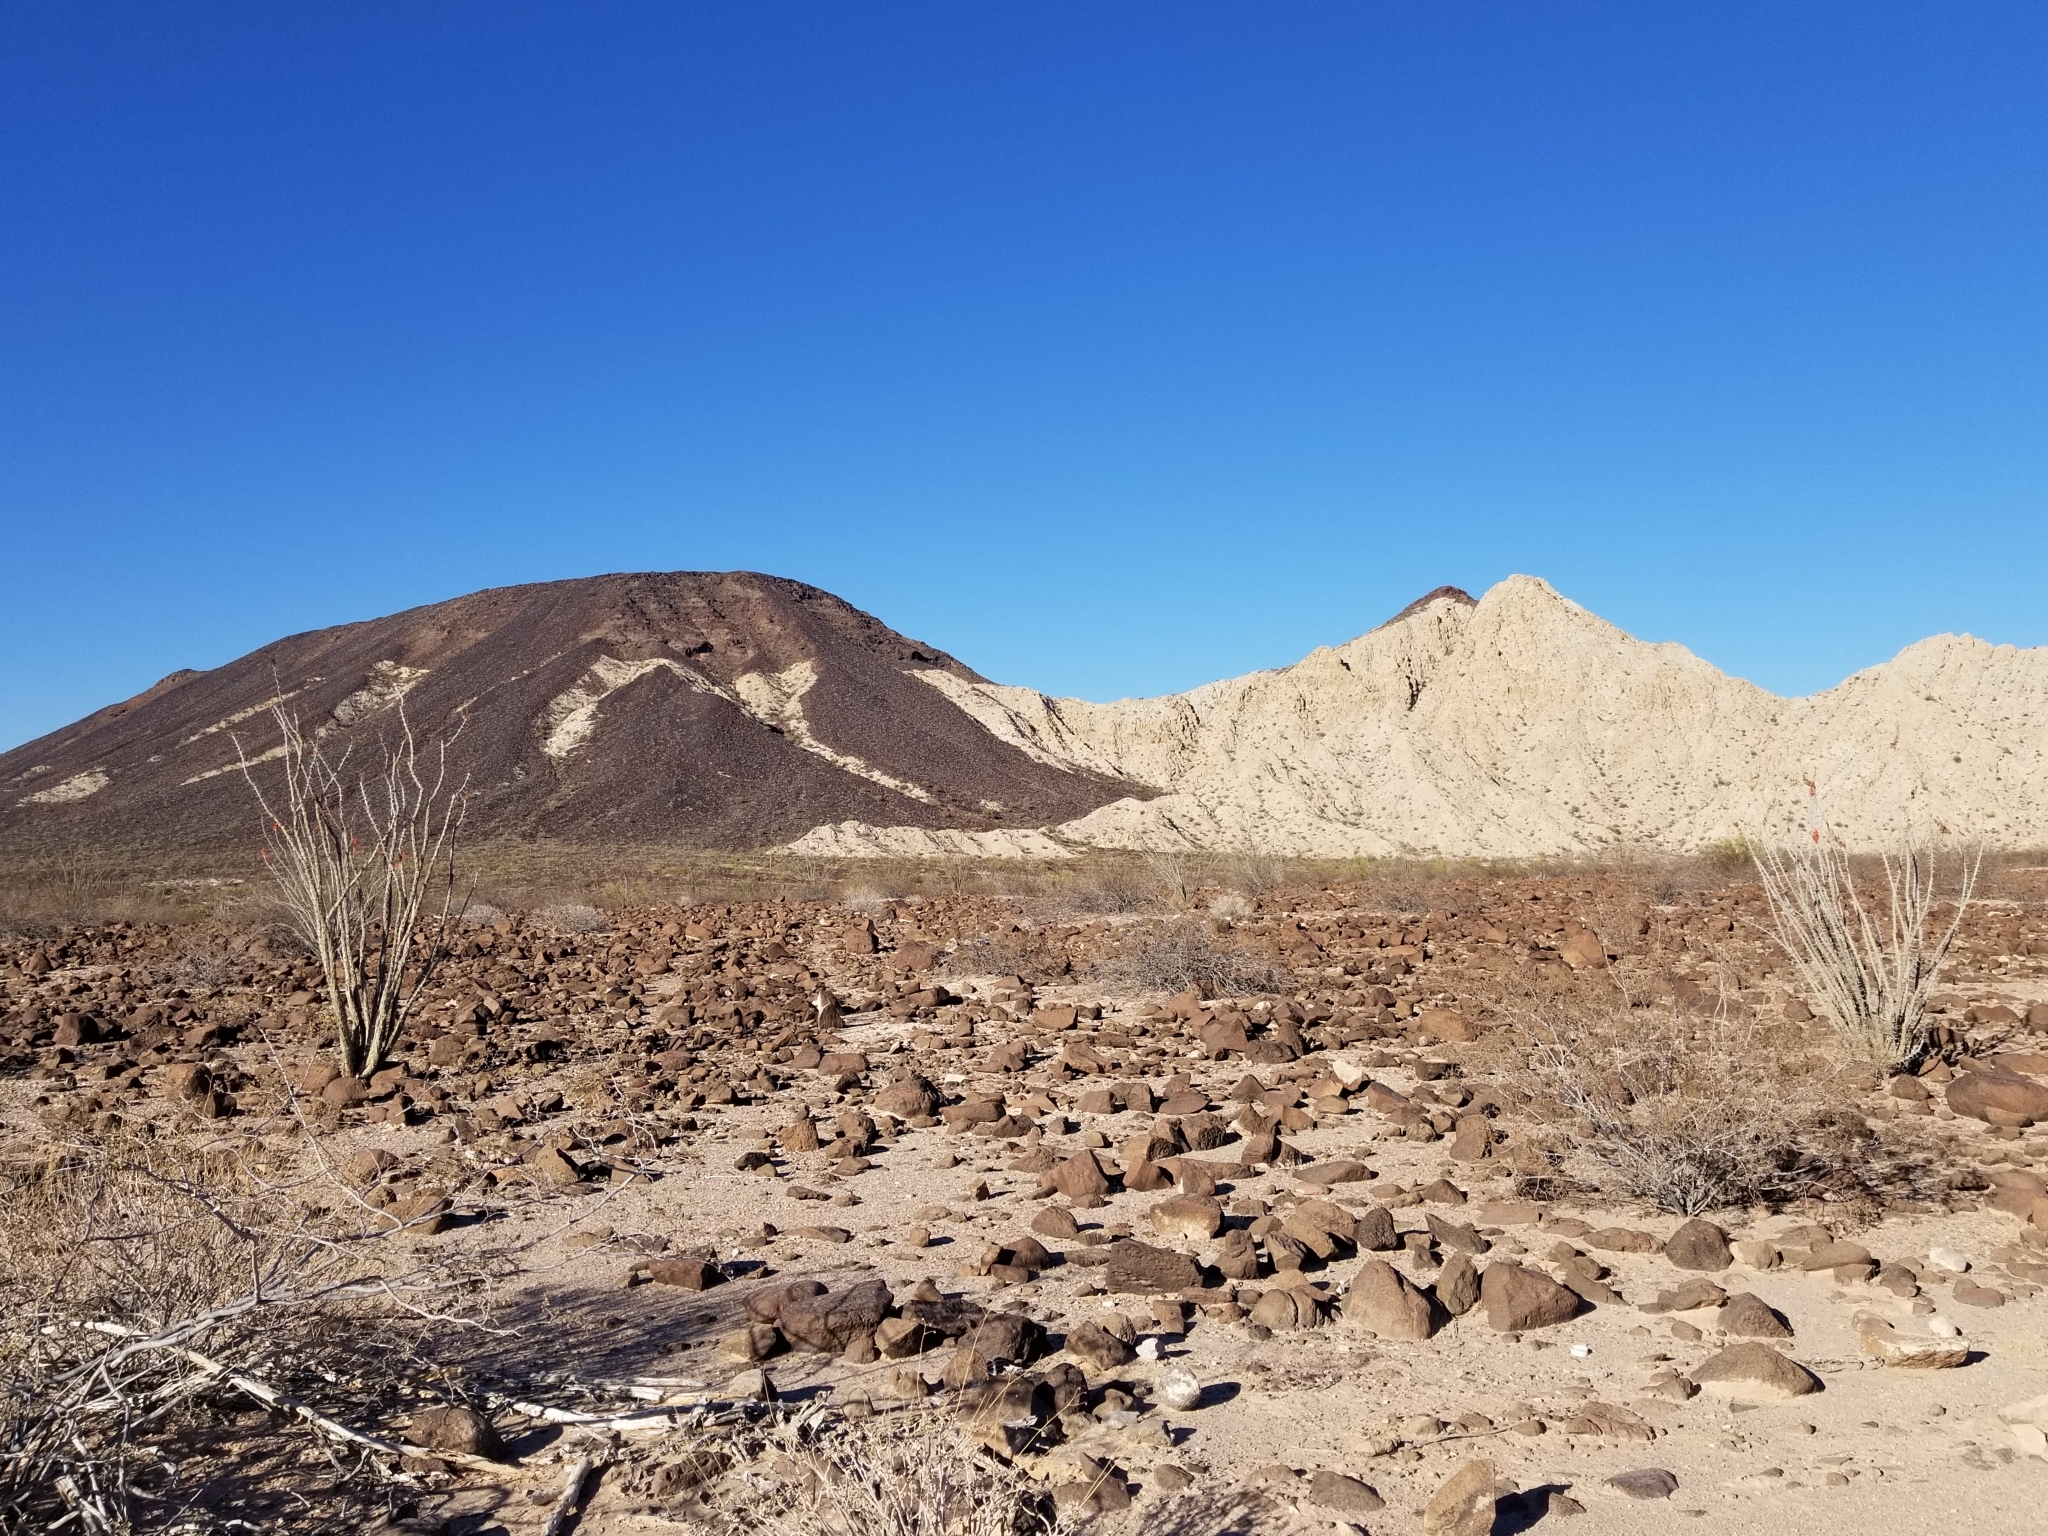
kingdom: Plantae
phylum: Tracheophyta
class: Magnoliopsida
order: Ericales
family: Fouquieriaceae
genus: Fouquieria
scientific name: Fouquieria splendens
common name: Vine-cactus
